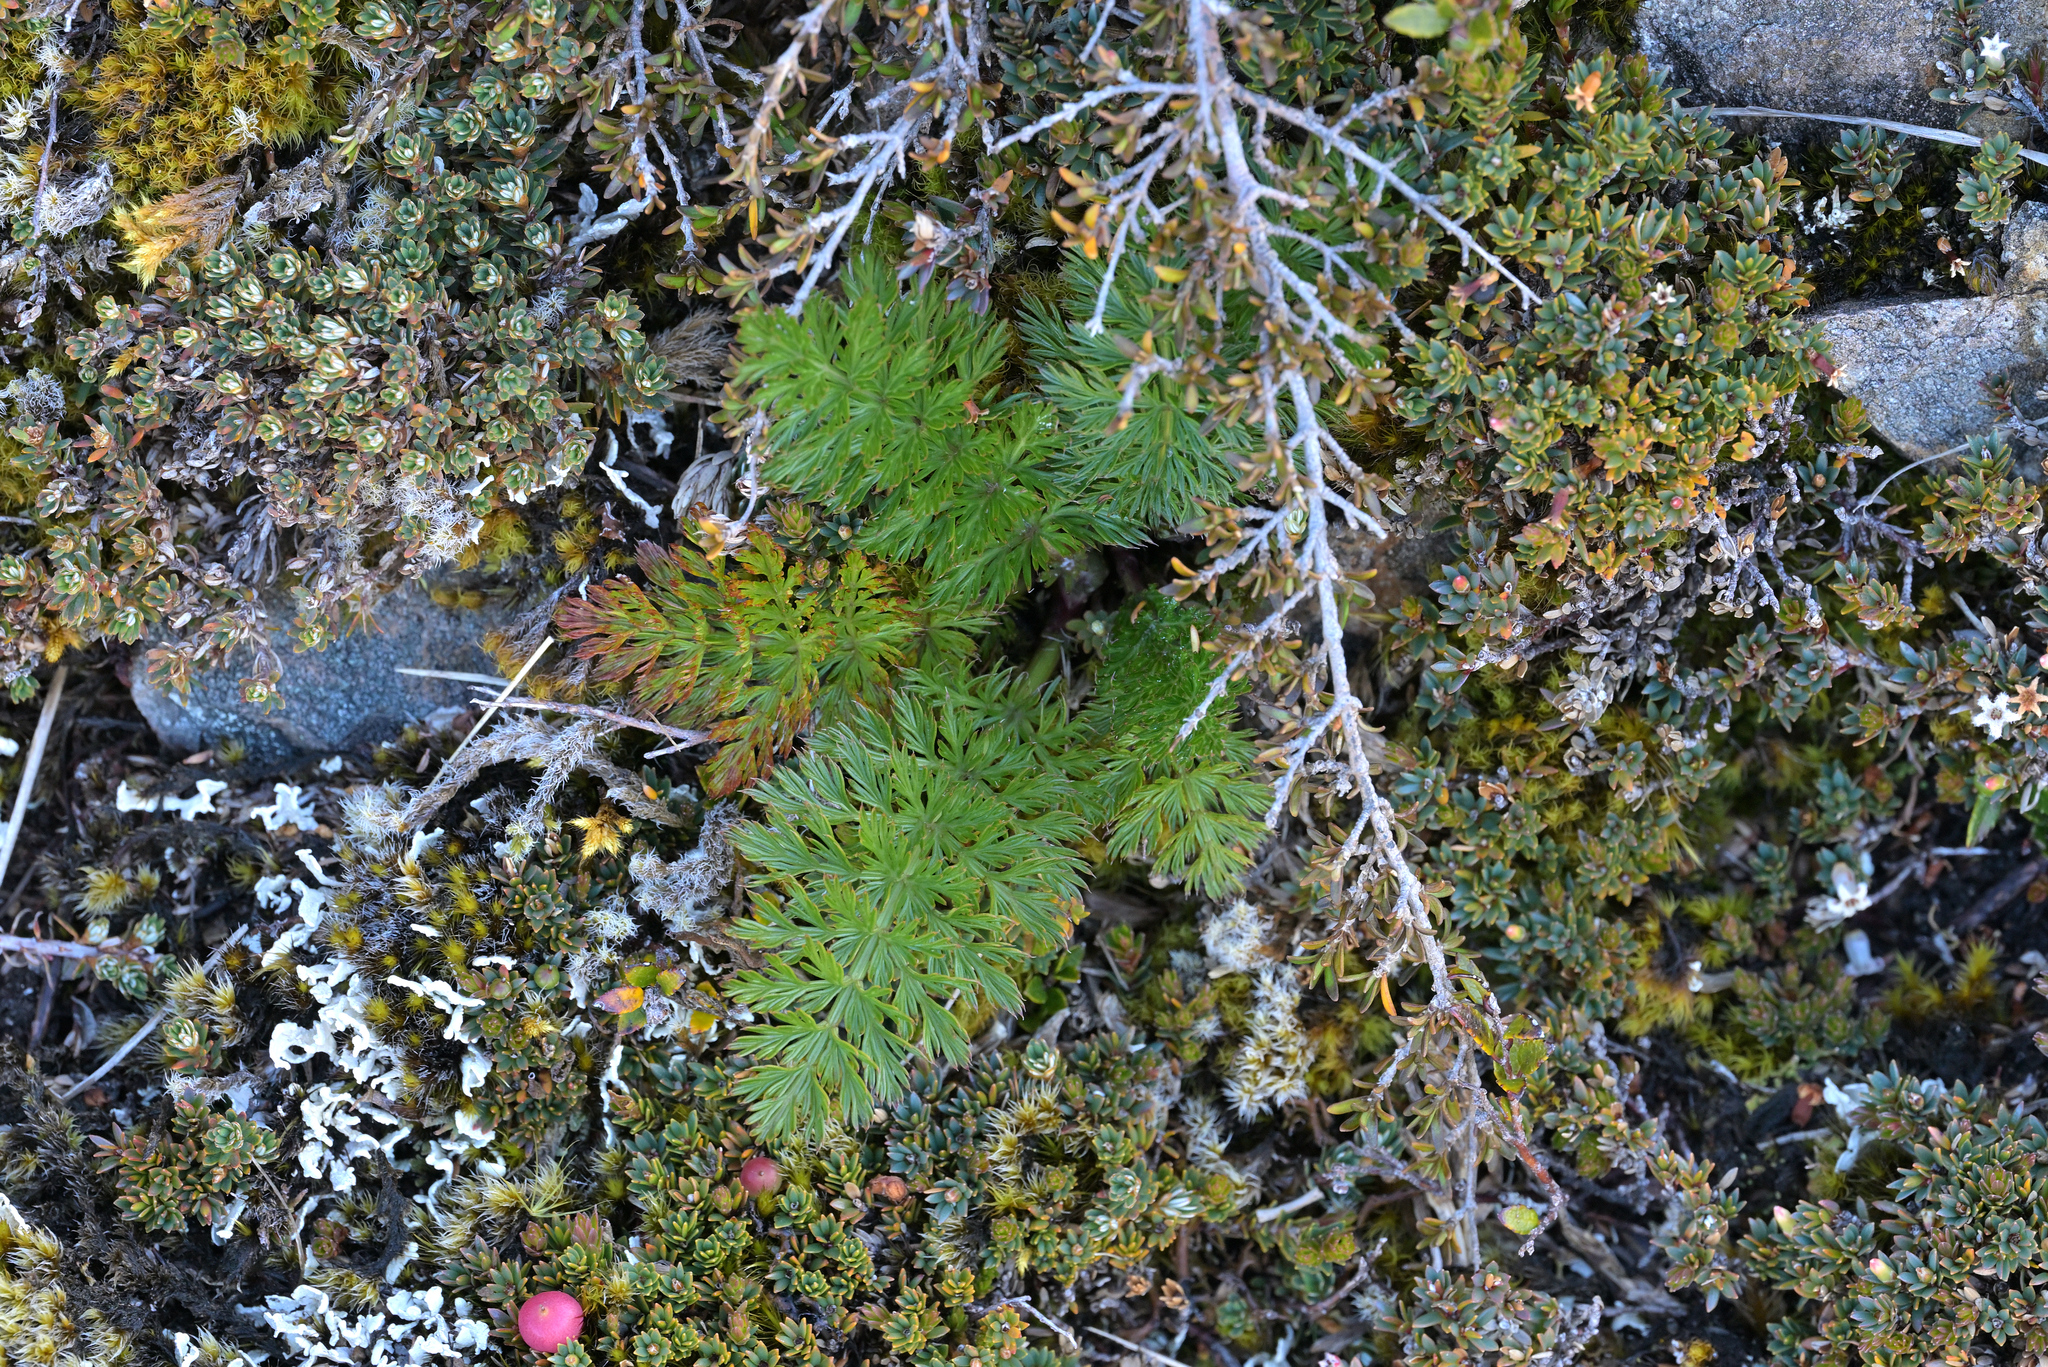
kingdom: Plantae
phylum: Tracheophyta
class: Magnoliopsida
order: Apiales
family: Apiaceae
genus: Anisotome
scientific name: Anisotome haastii
